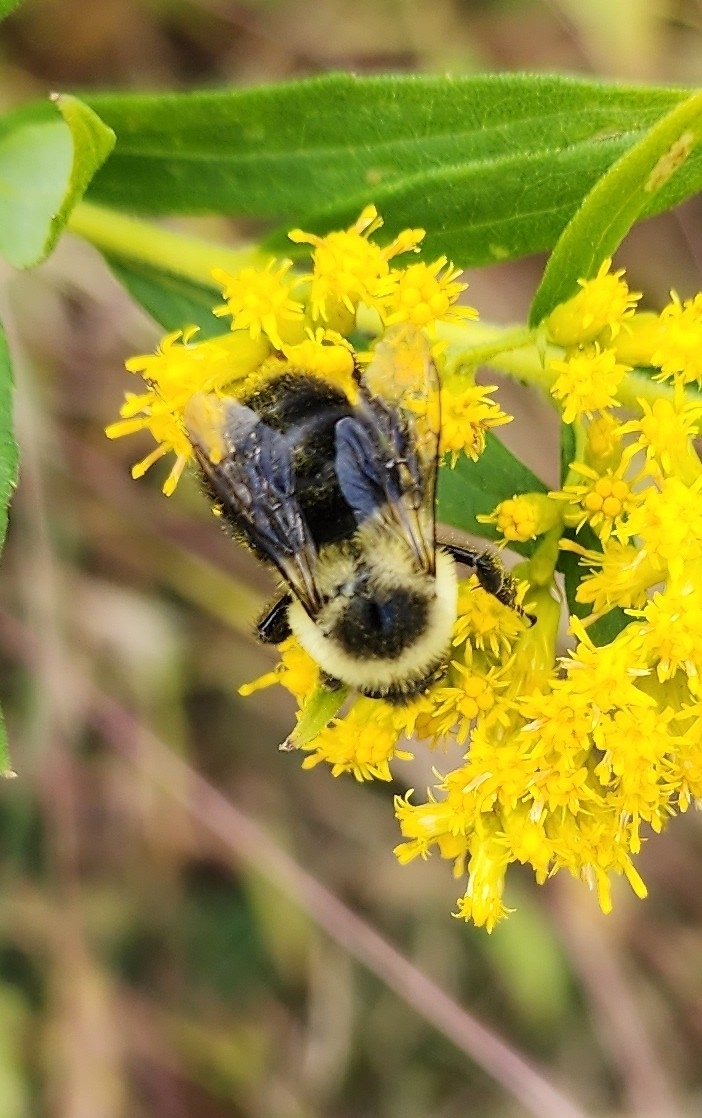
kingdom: Animalia
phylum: Arthropoda
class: Insecta
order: Hymenoptera
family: Apidae
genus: Bombus
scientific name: Bombus impatiens
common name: Common eastern bumble bee
